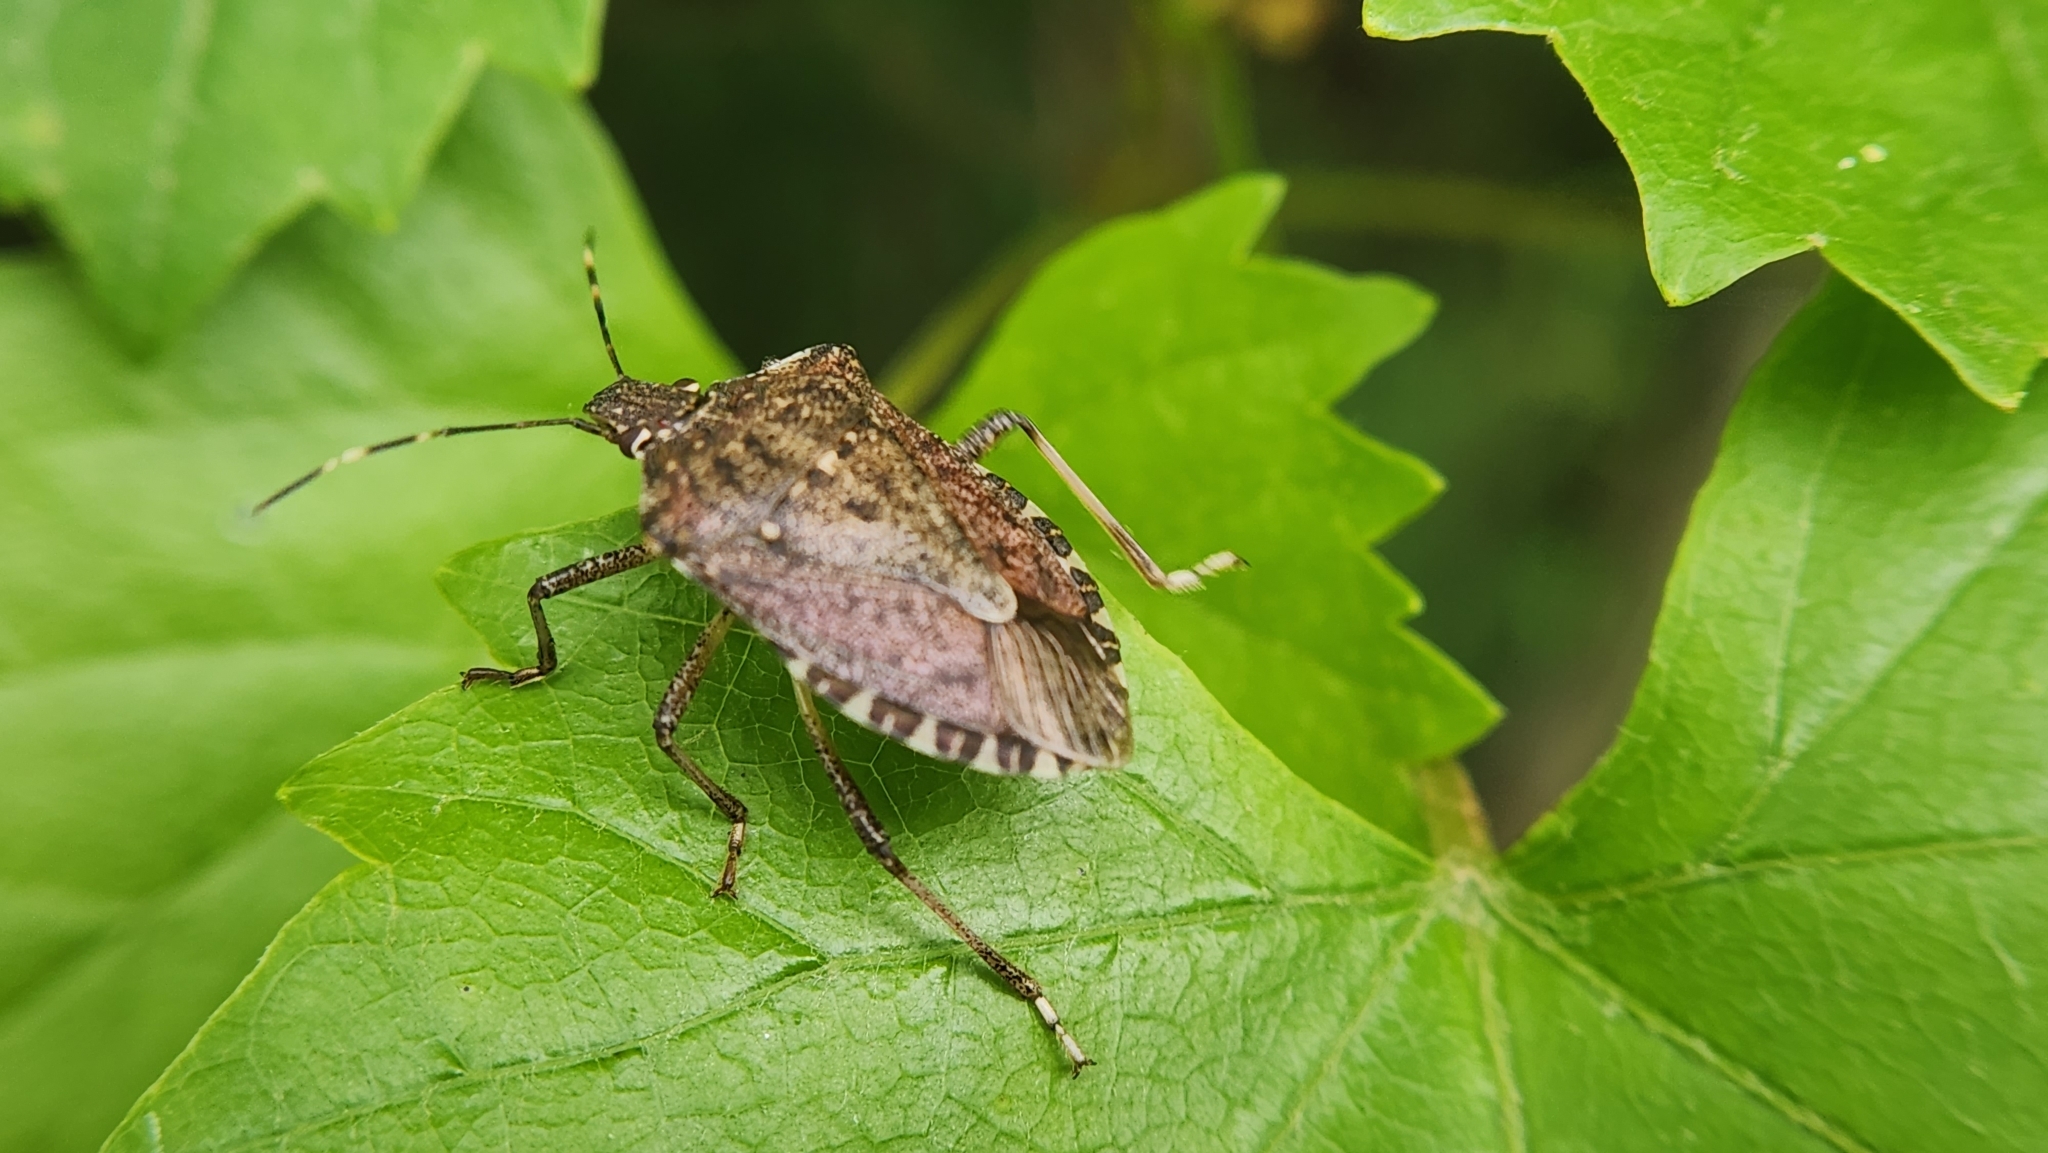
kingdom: Animalia
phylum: Arthropoda
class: Insecta
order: Hemiptera
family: Pentatomidae
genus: Halyomorpha
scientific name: Halyomorpha halys
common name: Brown marmorated stink bug
